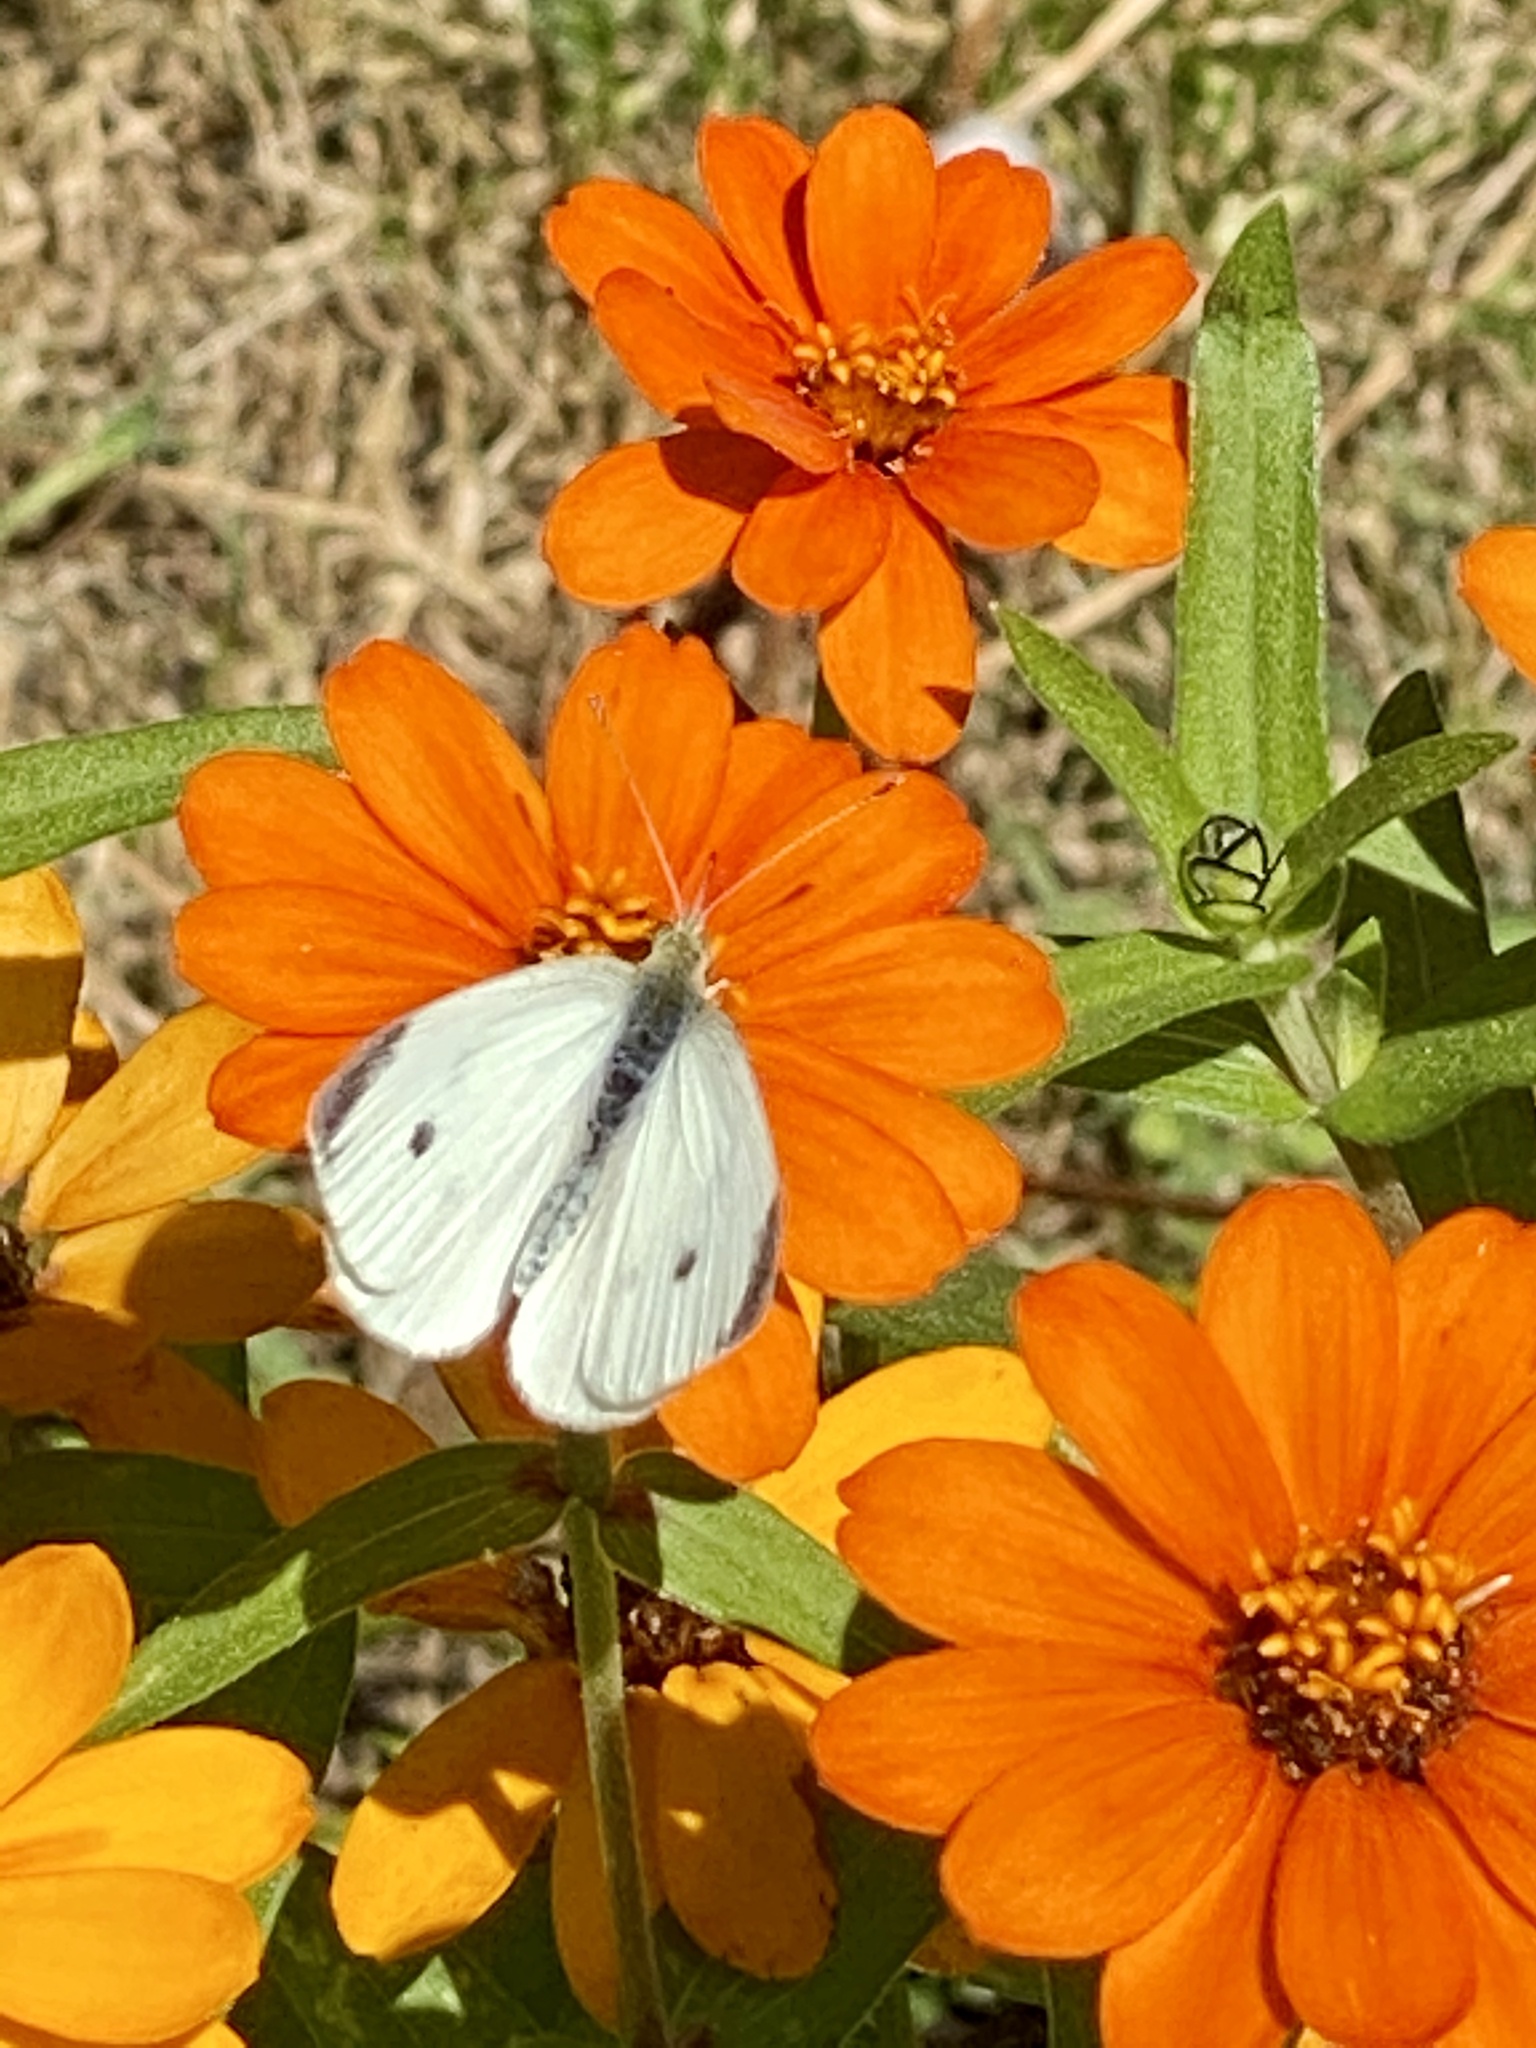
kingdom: Animalia
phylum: Arthropoda
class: Insecta
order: Lepidoptera
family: Pieridae
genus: Pieris
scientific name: Pieris rapae
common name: Small white
